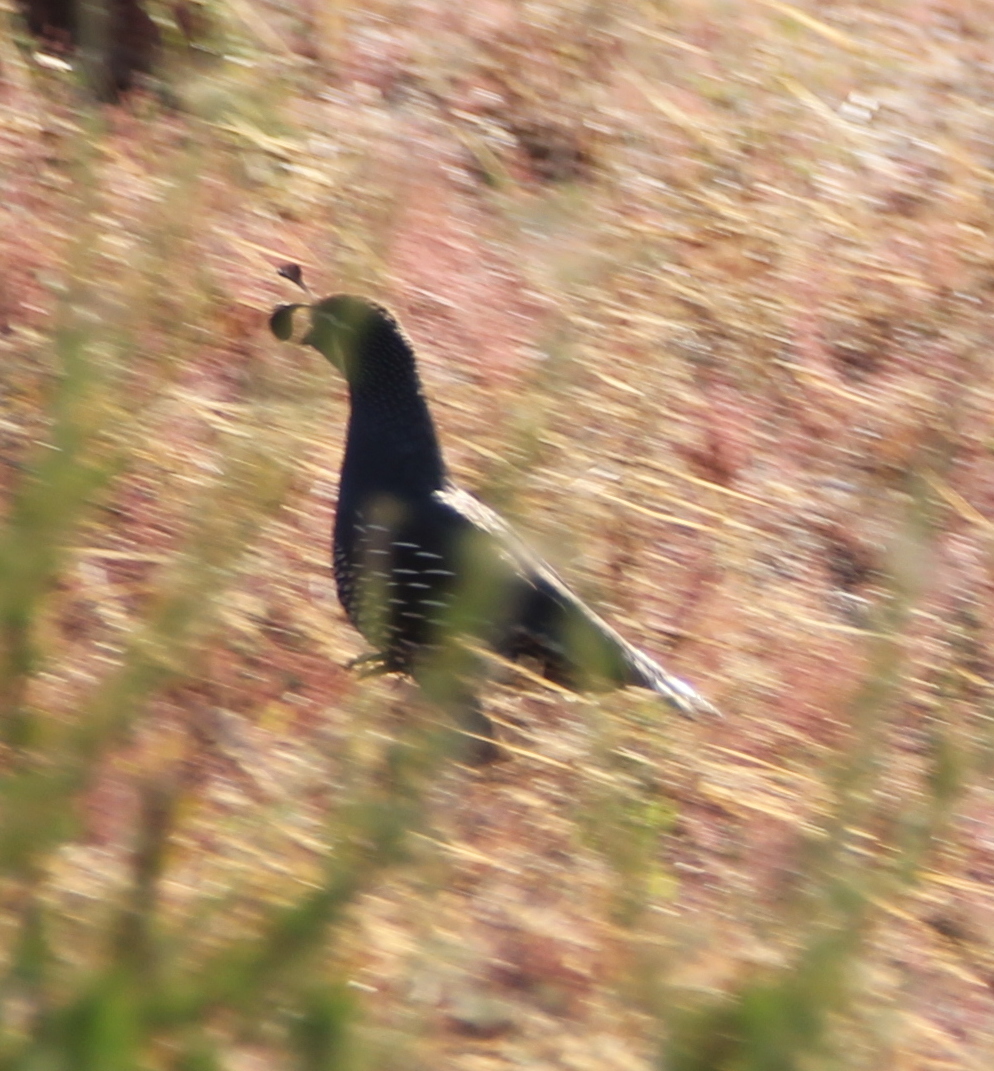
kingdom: Animalia
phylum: Chordata
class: Aves
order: Galliformes
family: Odontophoridae
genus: Callipepla
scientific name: Callipepla californica
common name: California quail
